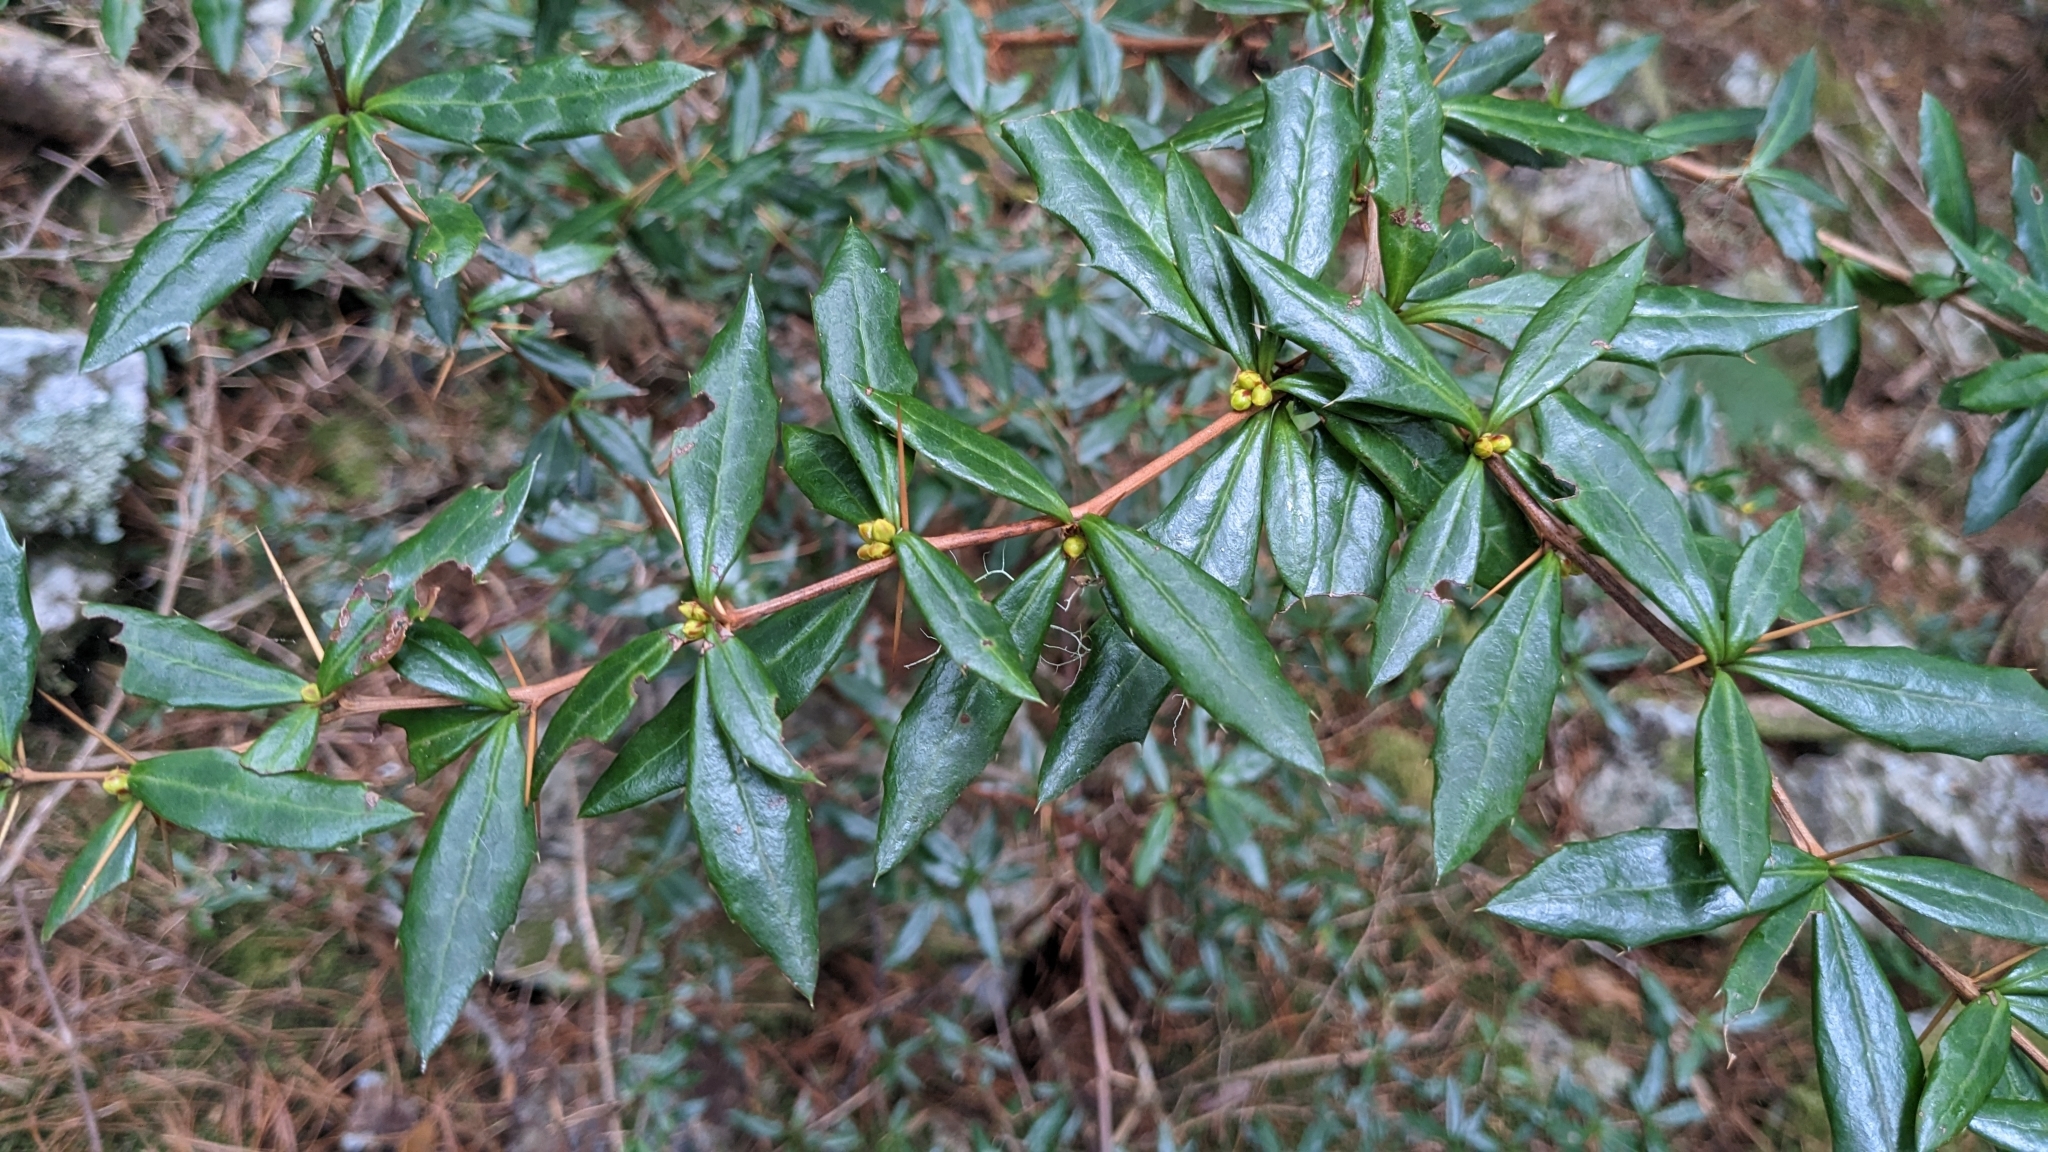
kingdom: Plantae
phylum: Tracheophyta
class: Magnoliopsida
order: Ranunculales
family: Berberidaceae
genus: Berberis
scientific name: Berberis nantoensis
